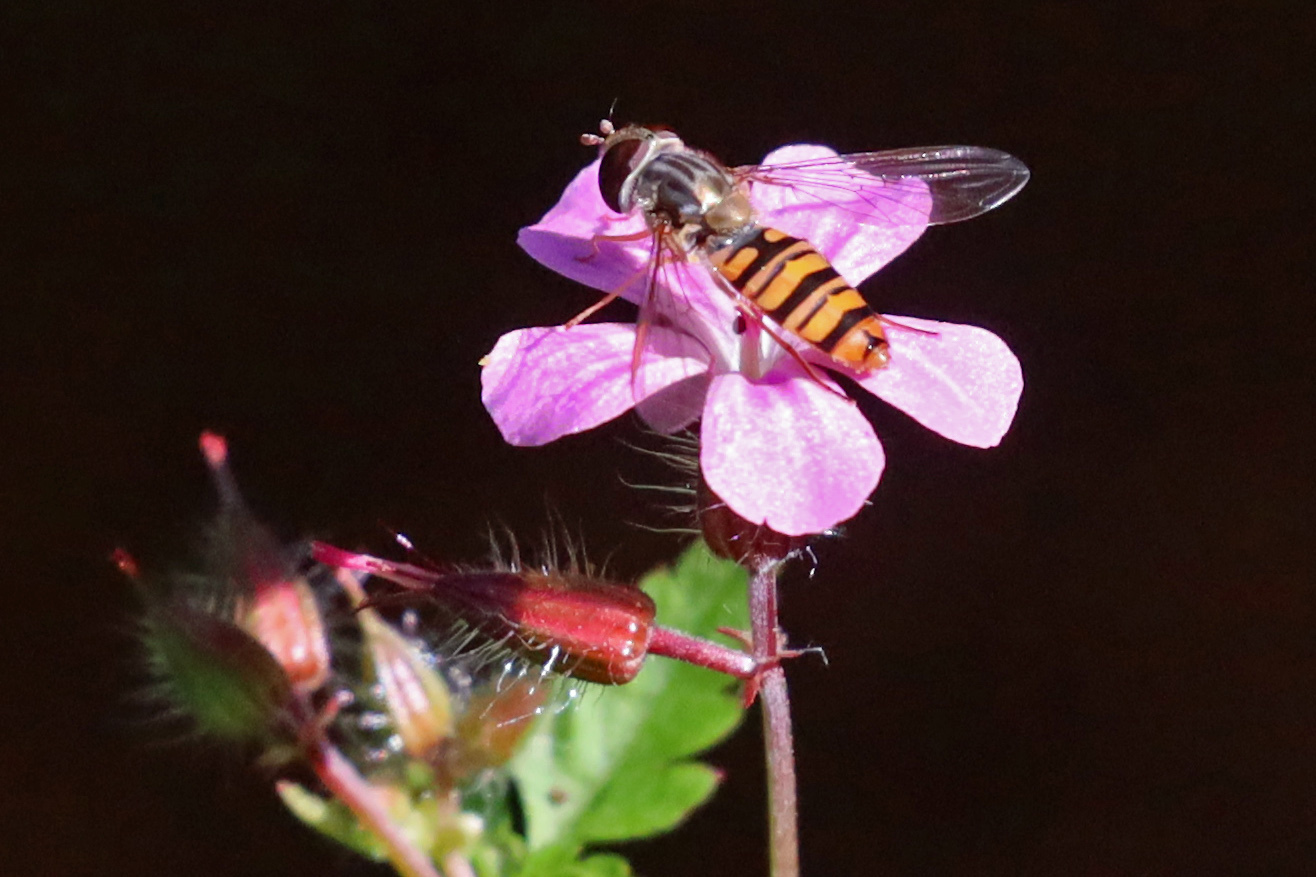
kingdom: Animalia
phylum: Arthropoda
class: Insecta
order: Diptera
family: Syrphidae
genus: Episyrphus
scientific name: Episyrphus balteatus
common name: Marmalade hoverfly
